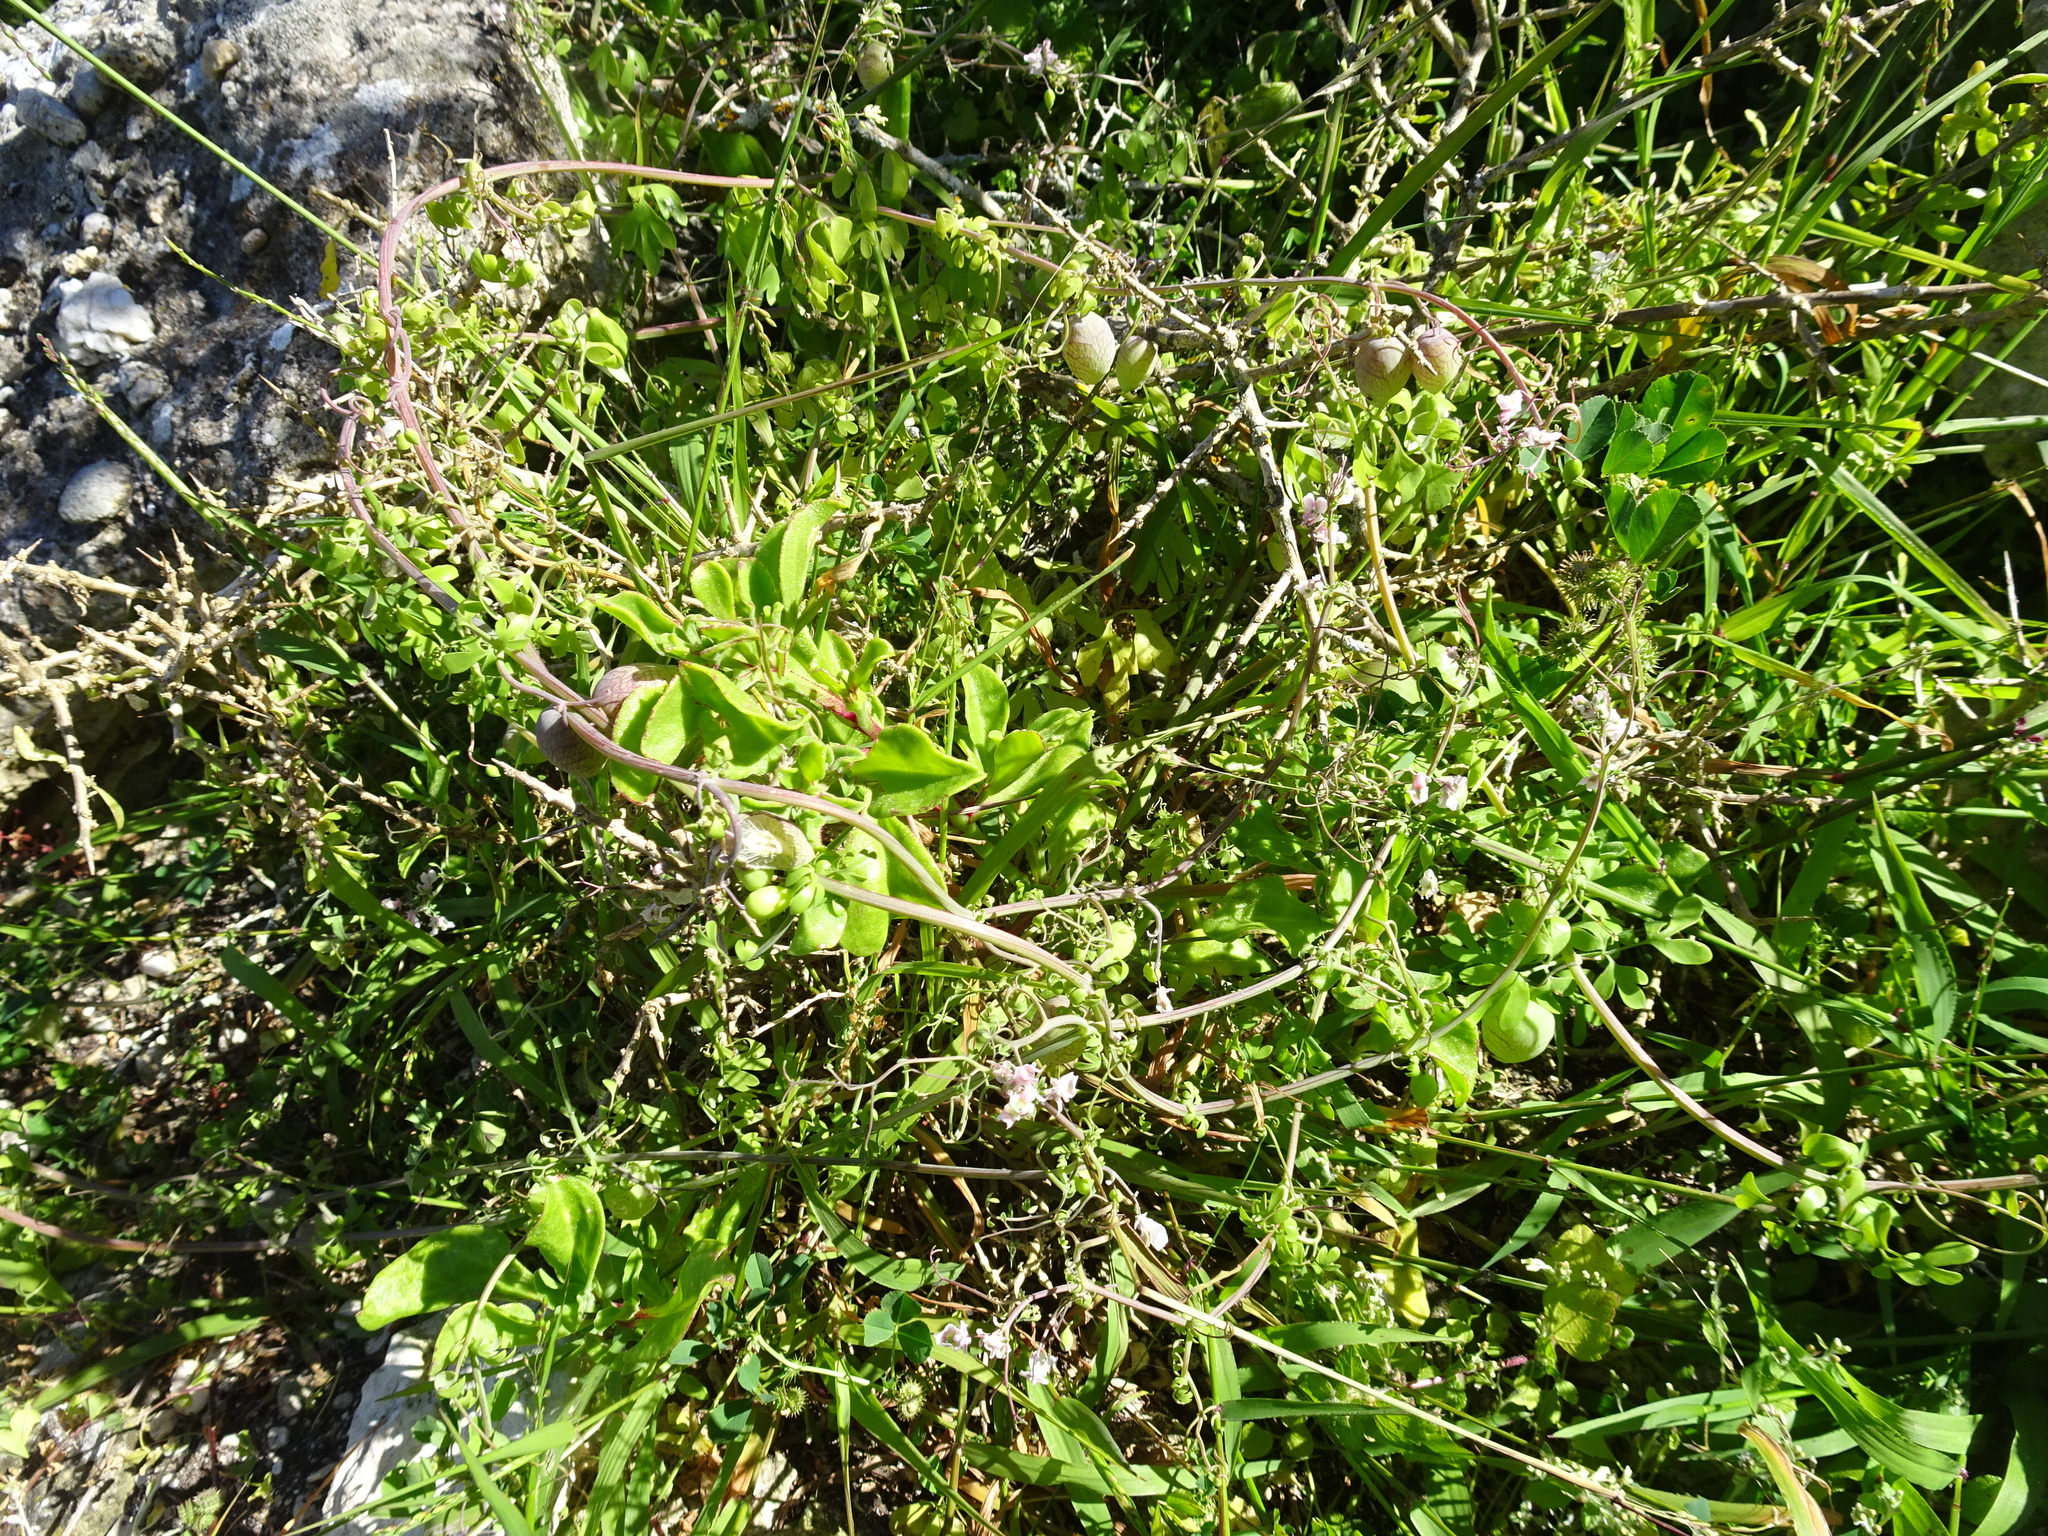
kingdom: Plantae
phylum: Tracheophyta
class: Magnoliopsida
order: Ranunculales
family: Papaveraceae
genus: Cysticapnos
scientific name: Cysticapnos vesicaria
